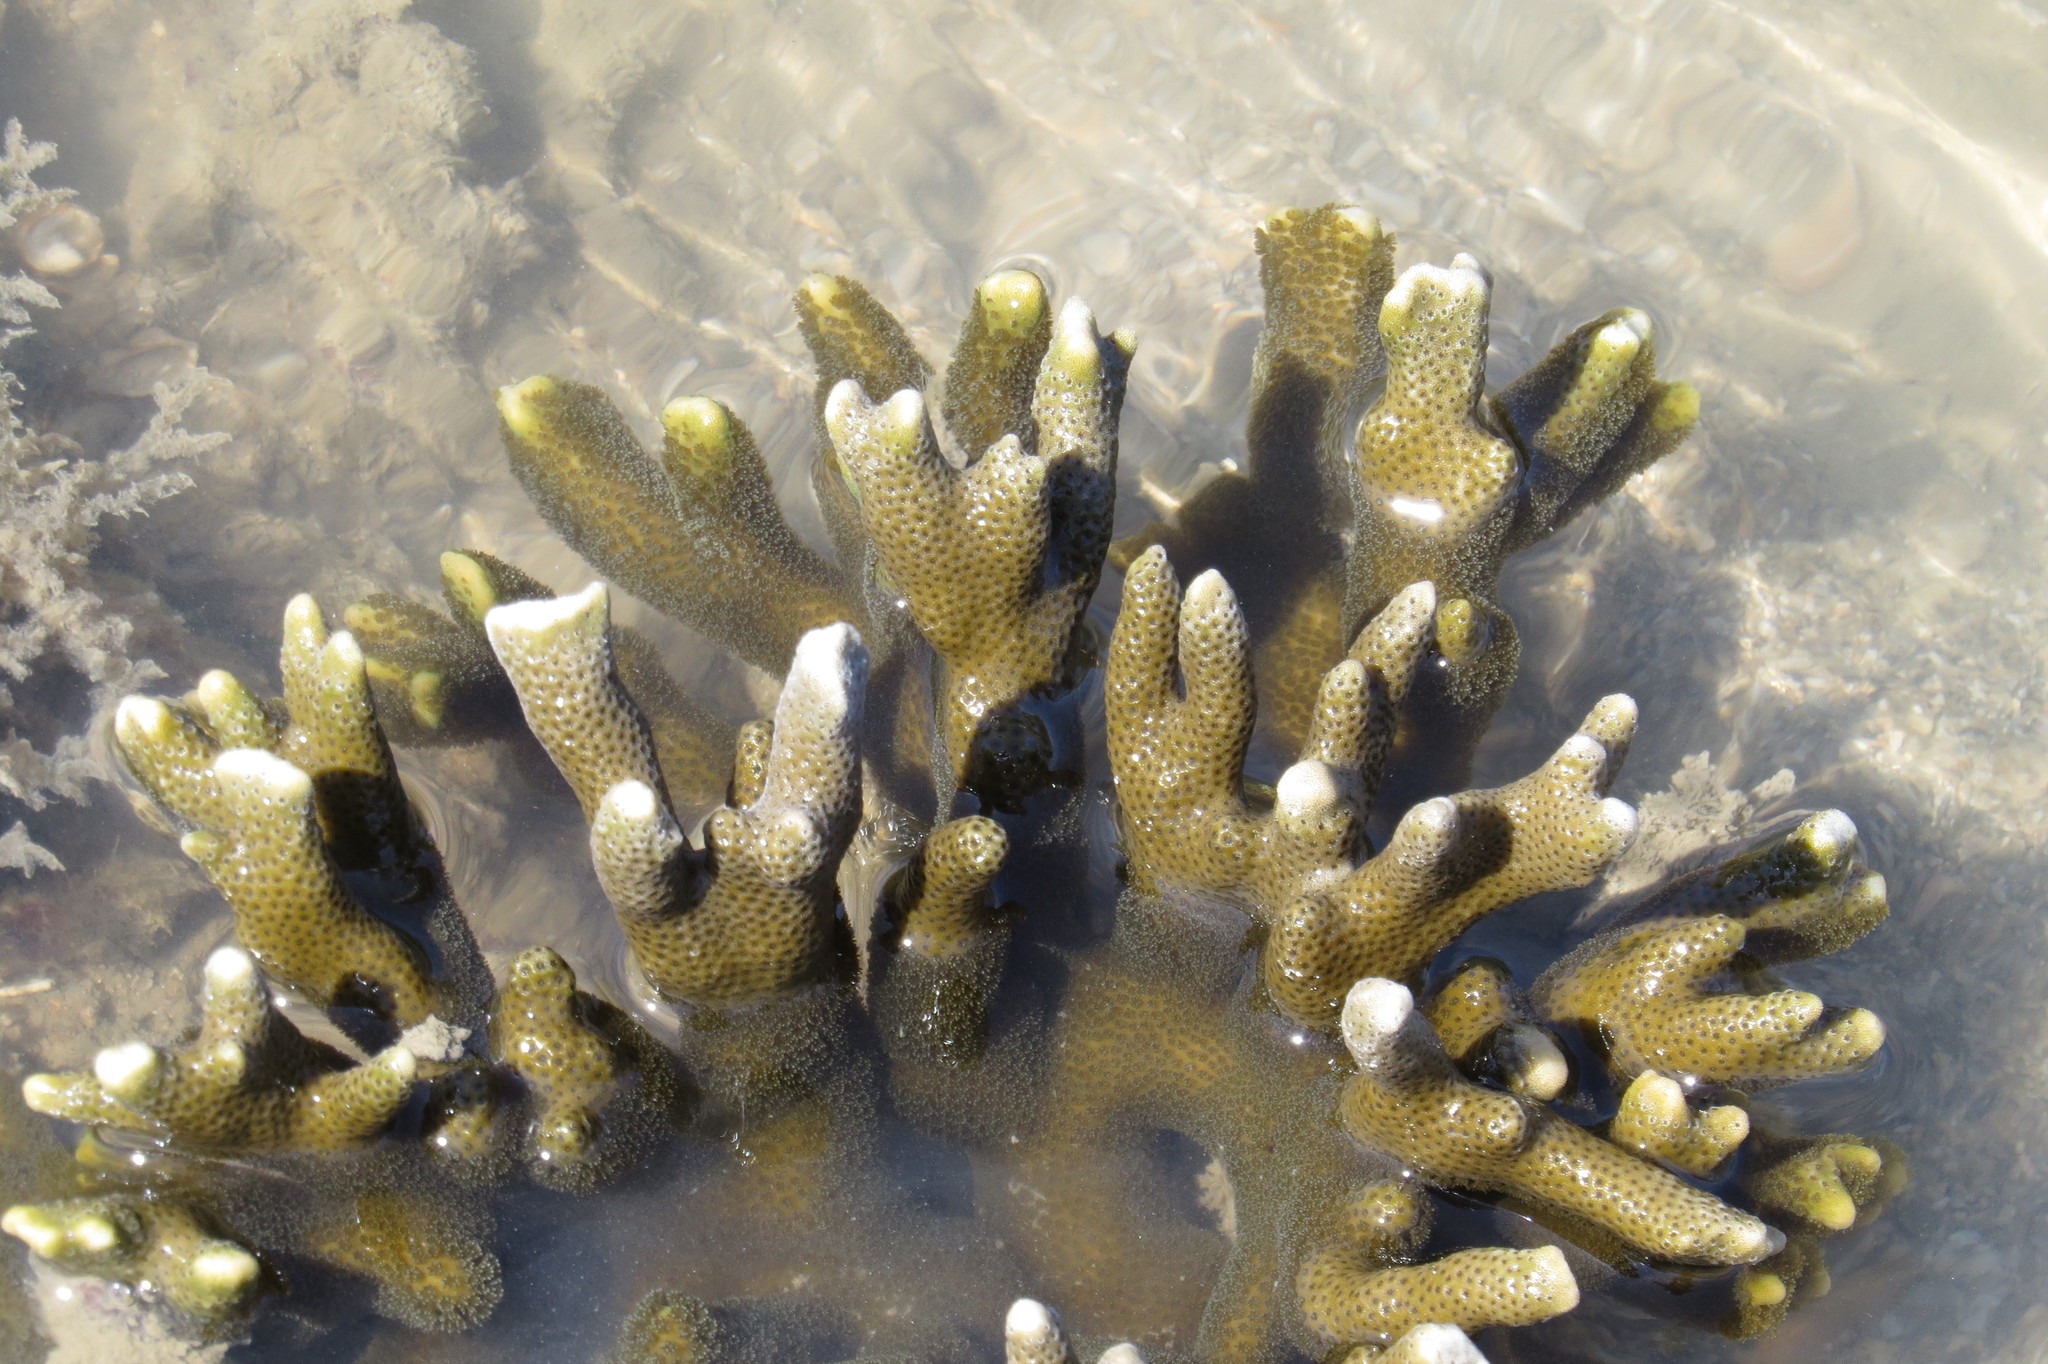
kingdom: Animalia
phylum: Cnidaria
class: Anthozoa
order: Scleractinia
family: Acroporidae
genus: Montipora
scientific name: Montipora digitata
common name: Pore coral
